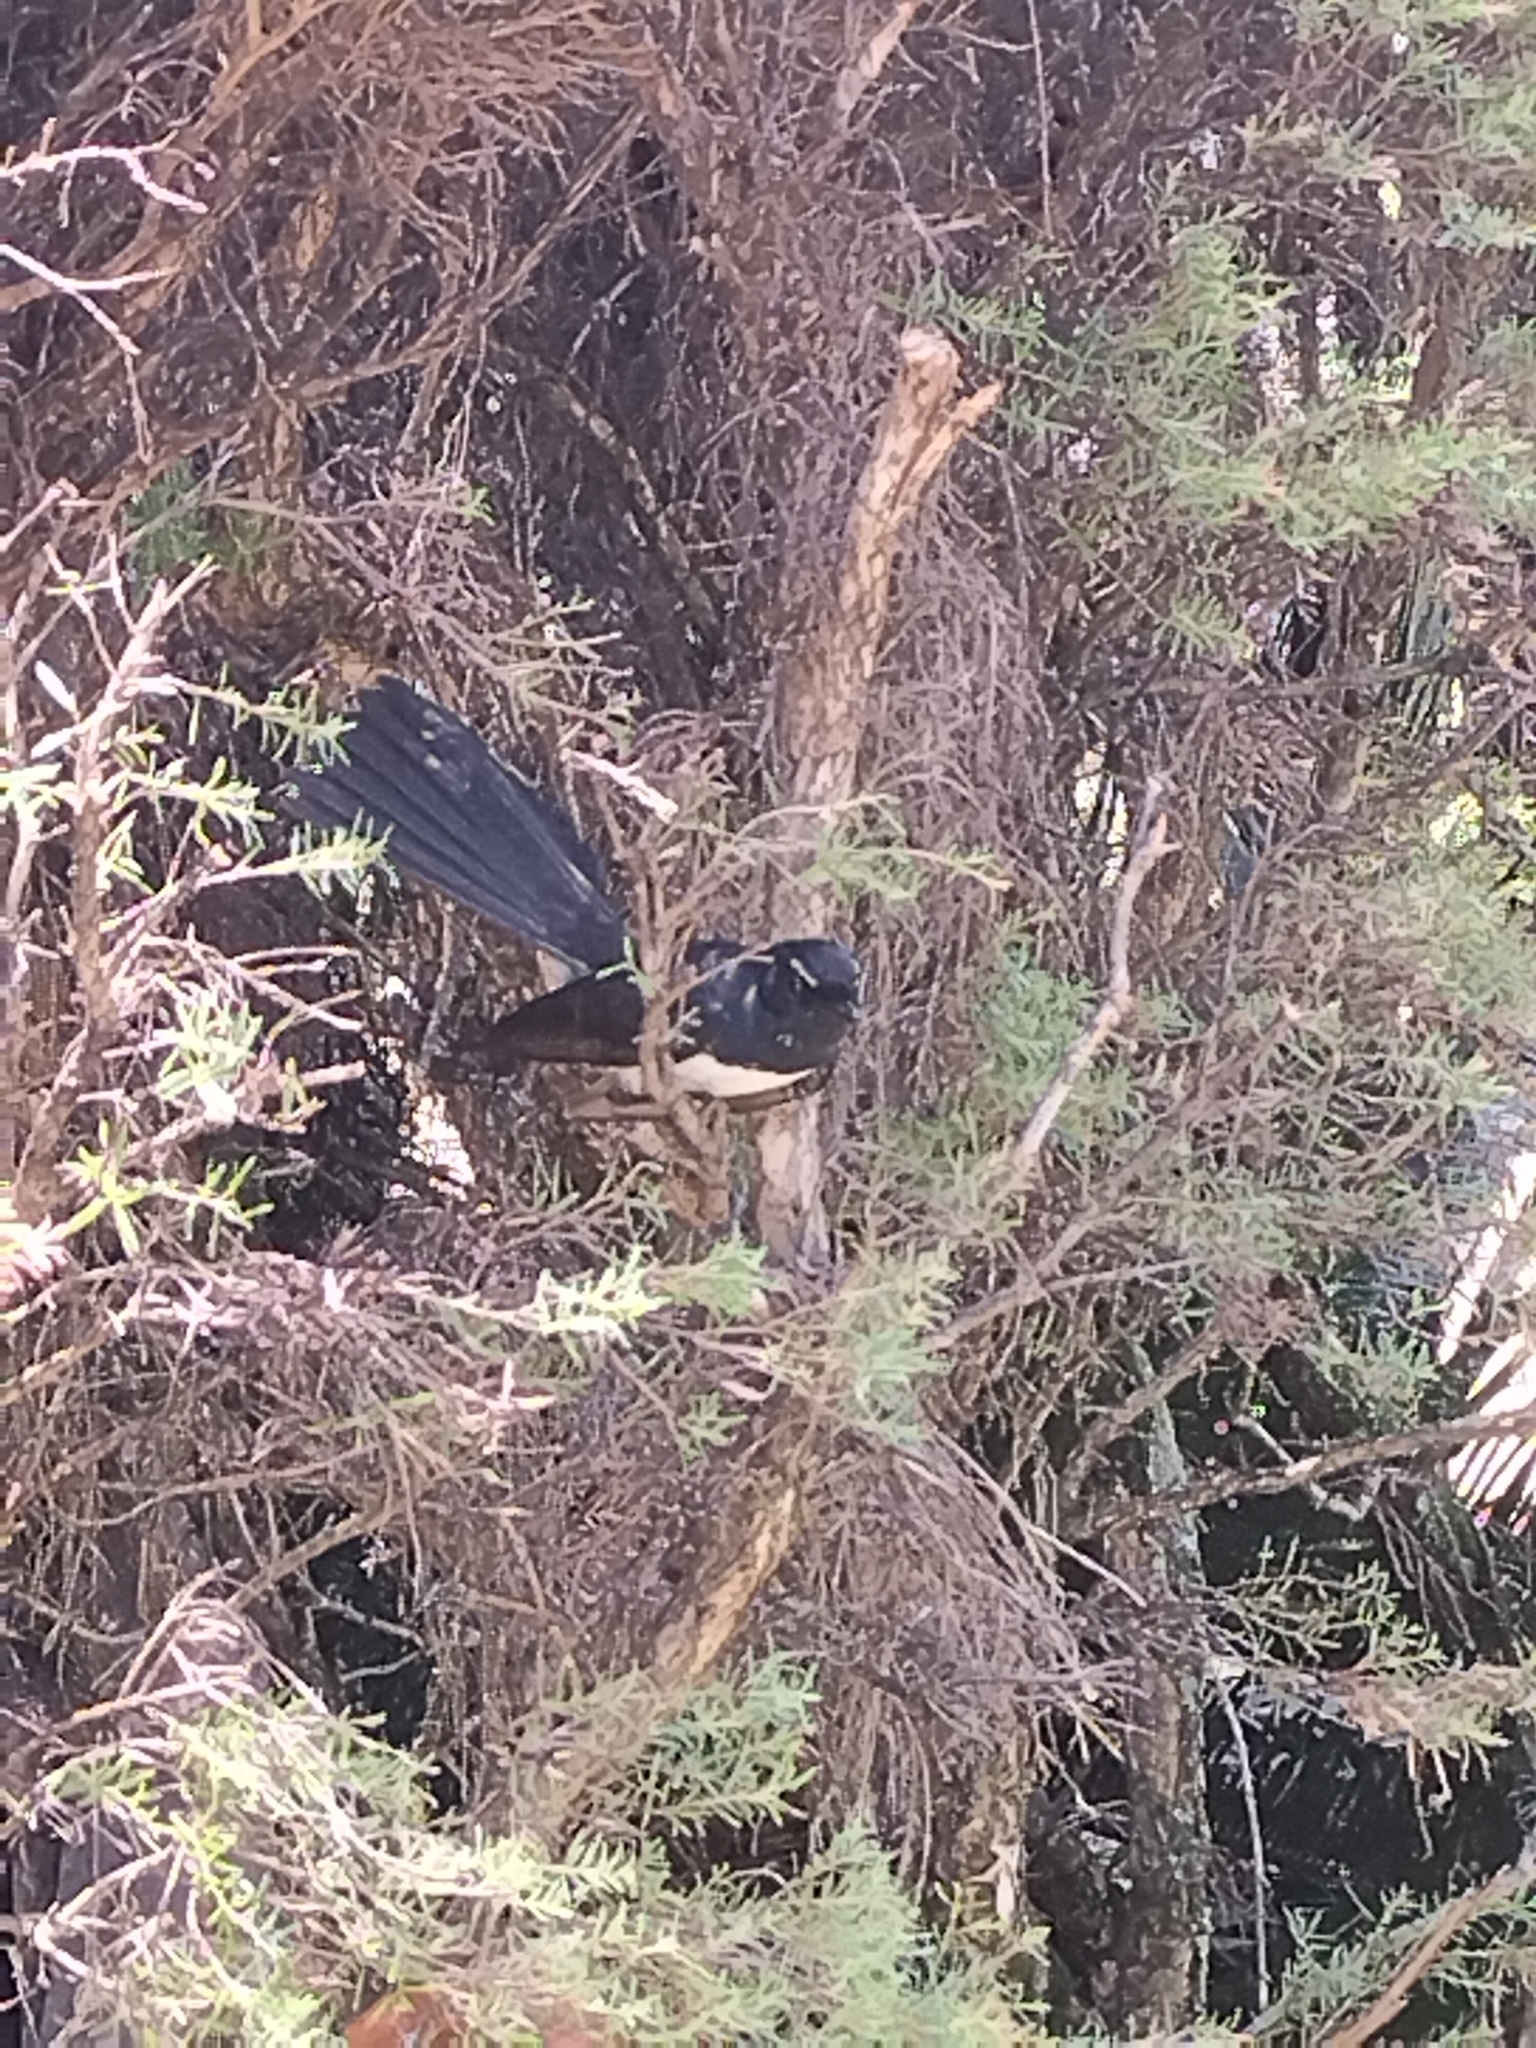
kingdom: Animalia
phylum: Chordata
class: Aves
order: Passeriformes
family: Rhipiduridae
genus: Rhipidura
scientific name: Rhipidura leucophrys
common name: Willie wagtail
